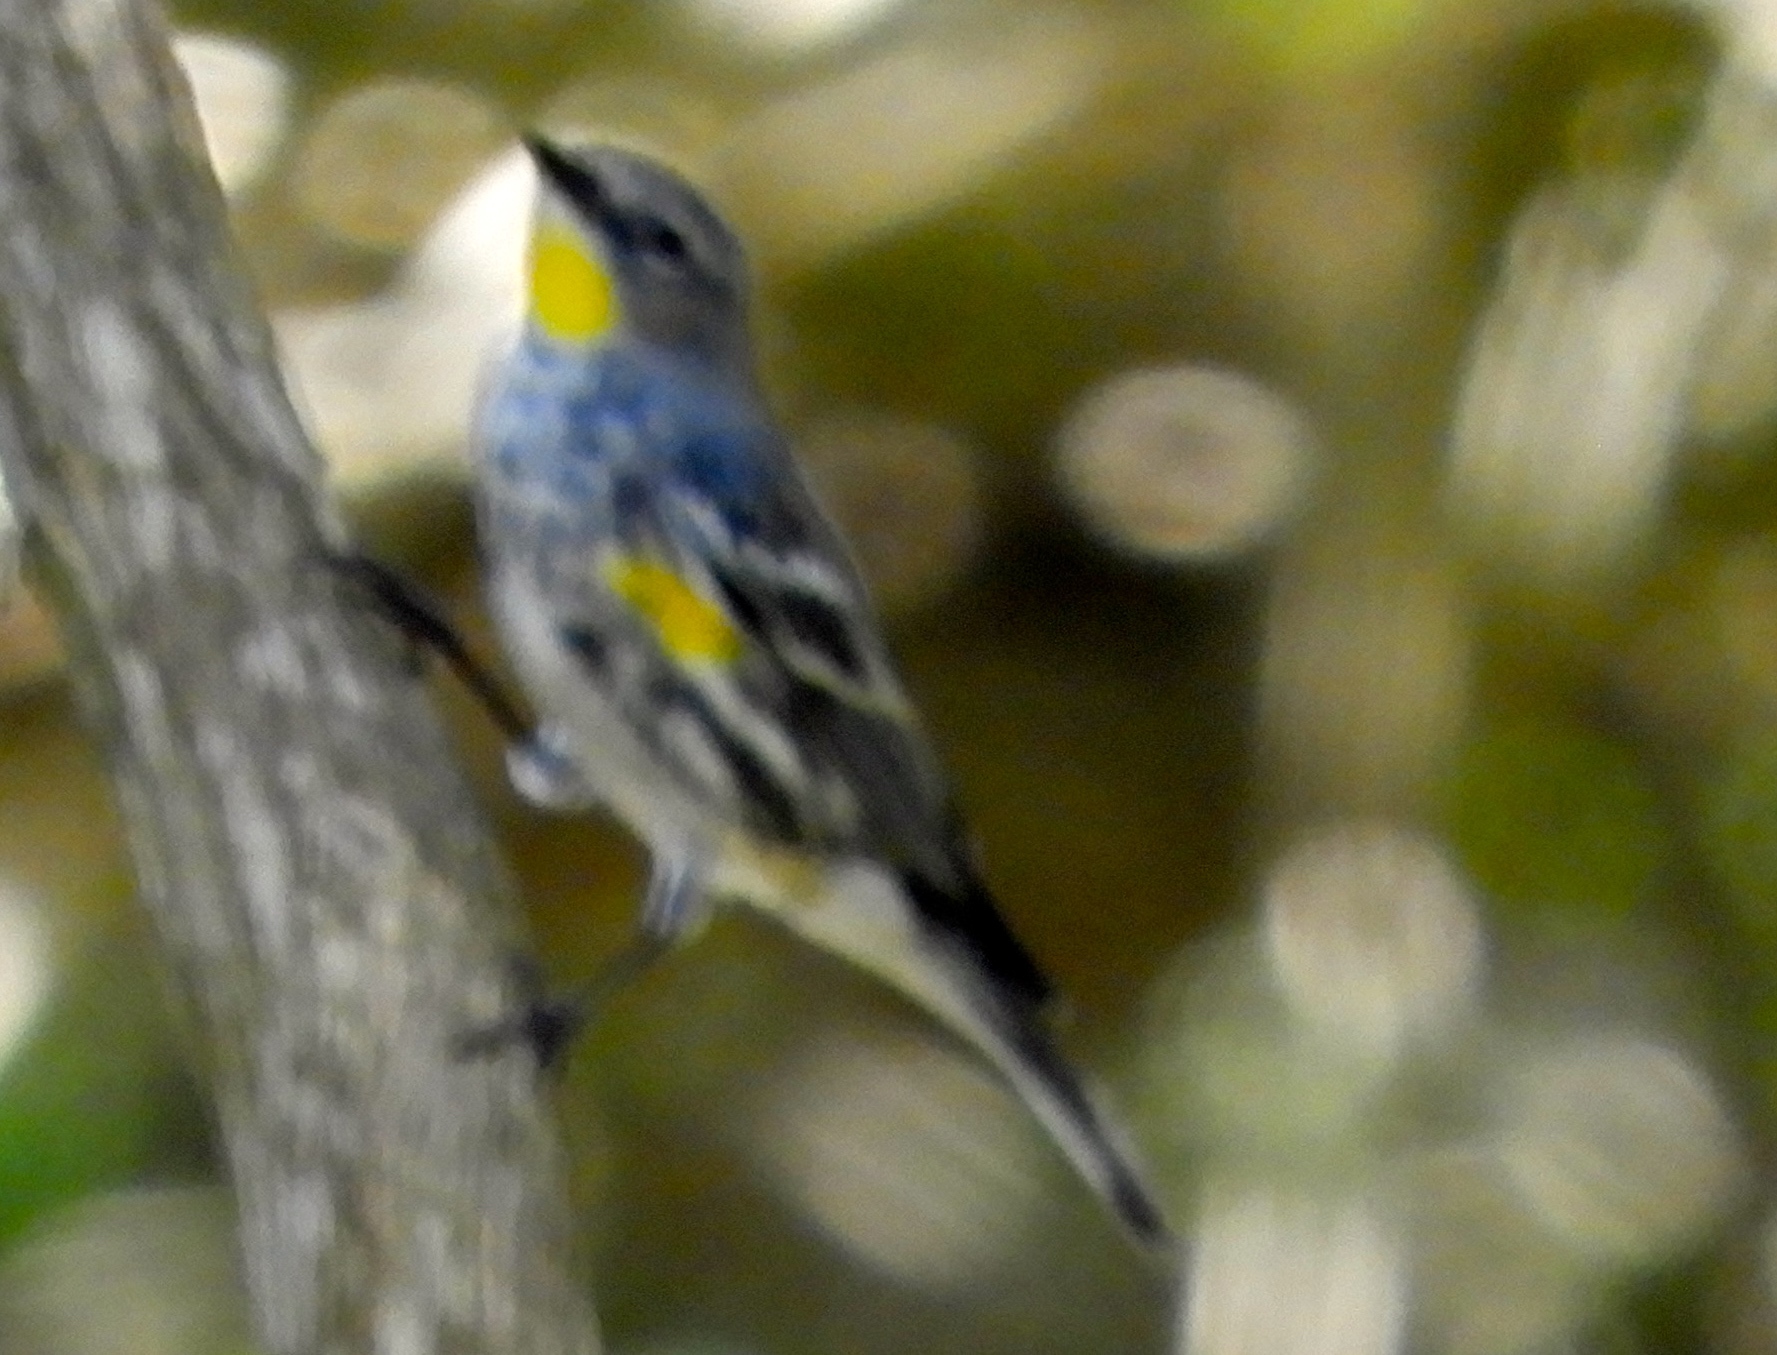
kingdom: Animalia
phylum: Chordata
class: Aves
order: Passeriformes
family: Parulidae
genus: Setophaga
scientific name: Setophaga auduboni
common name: Audubon's warbler
